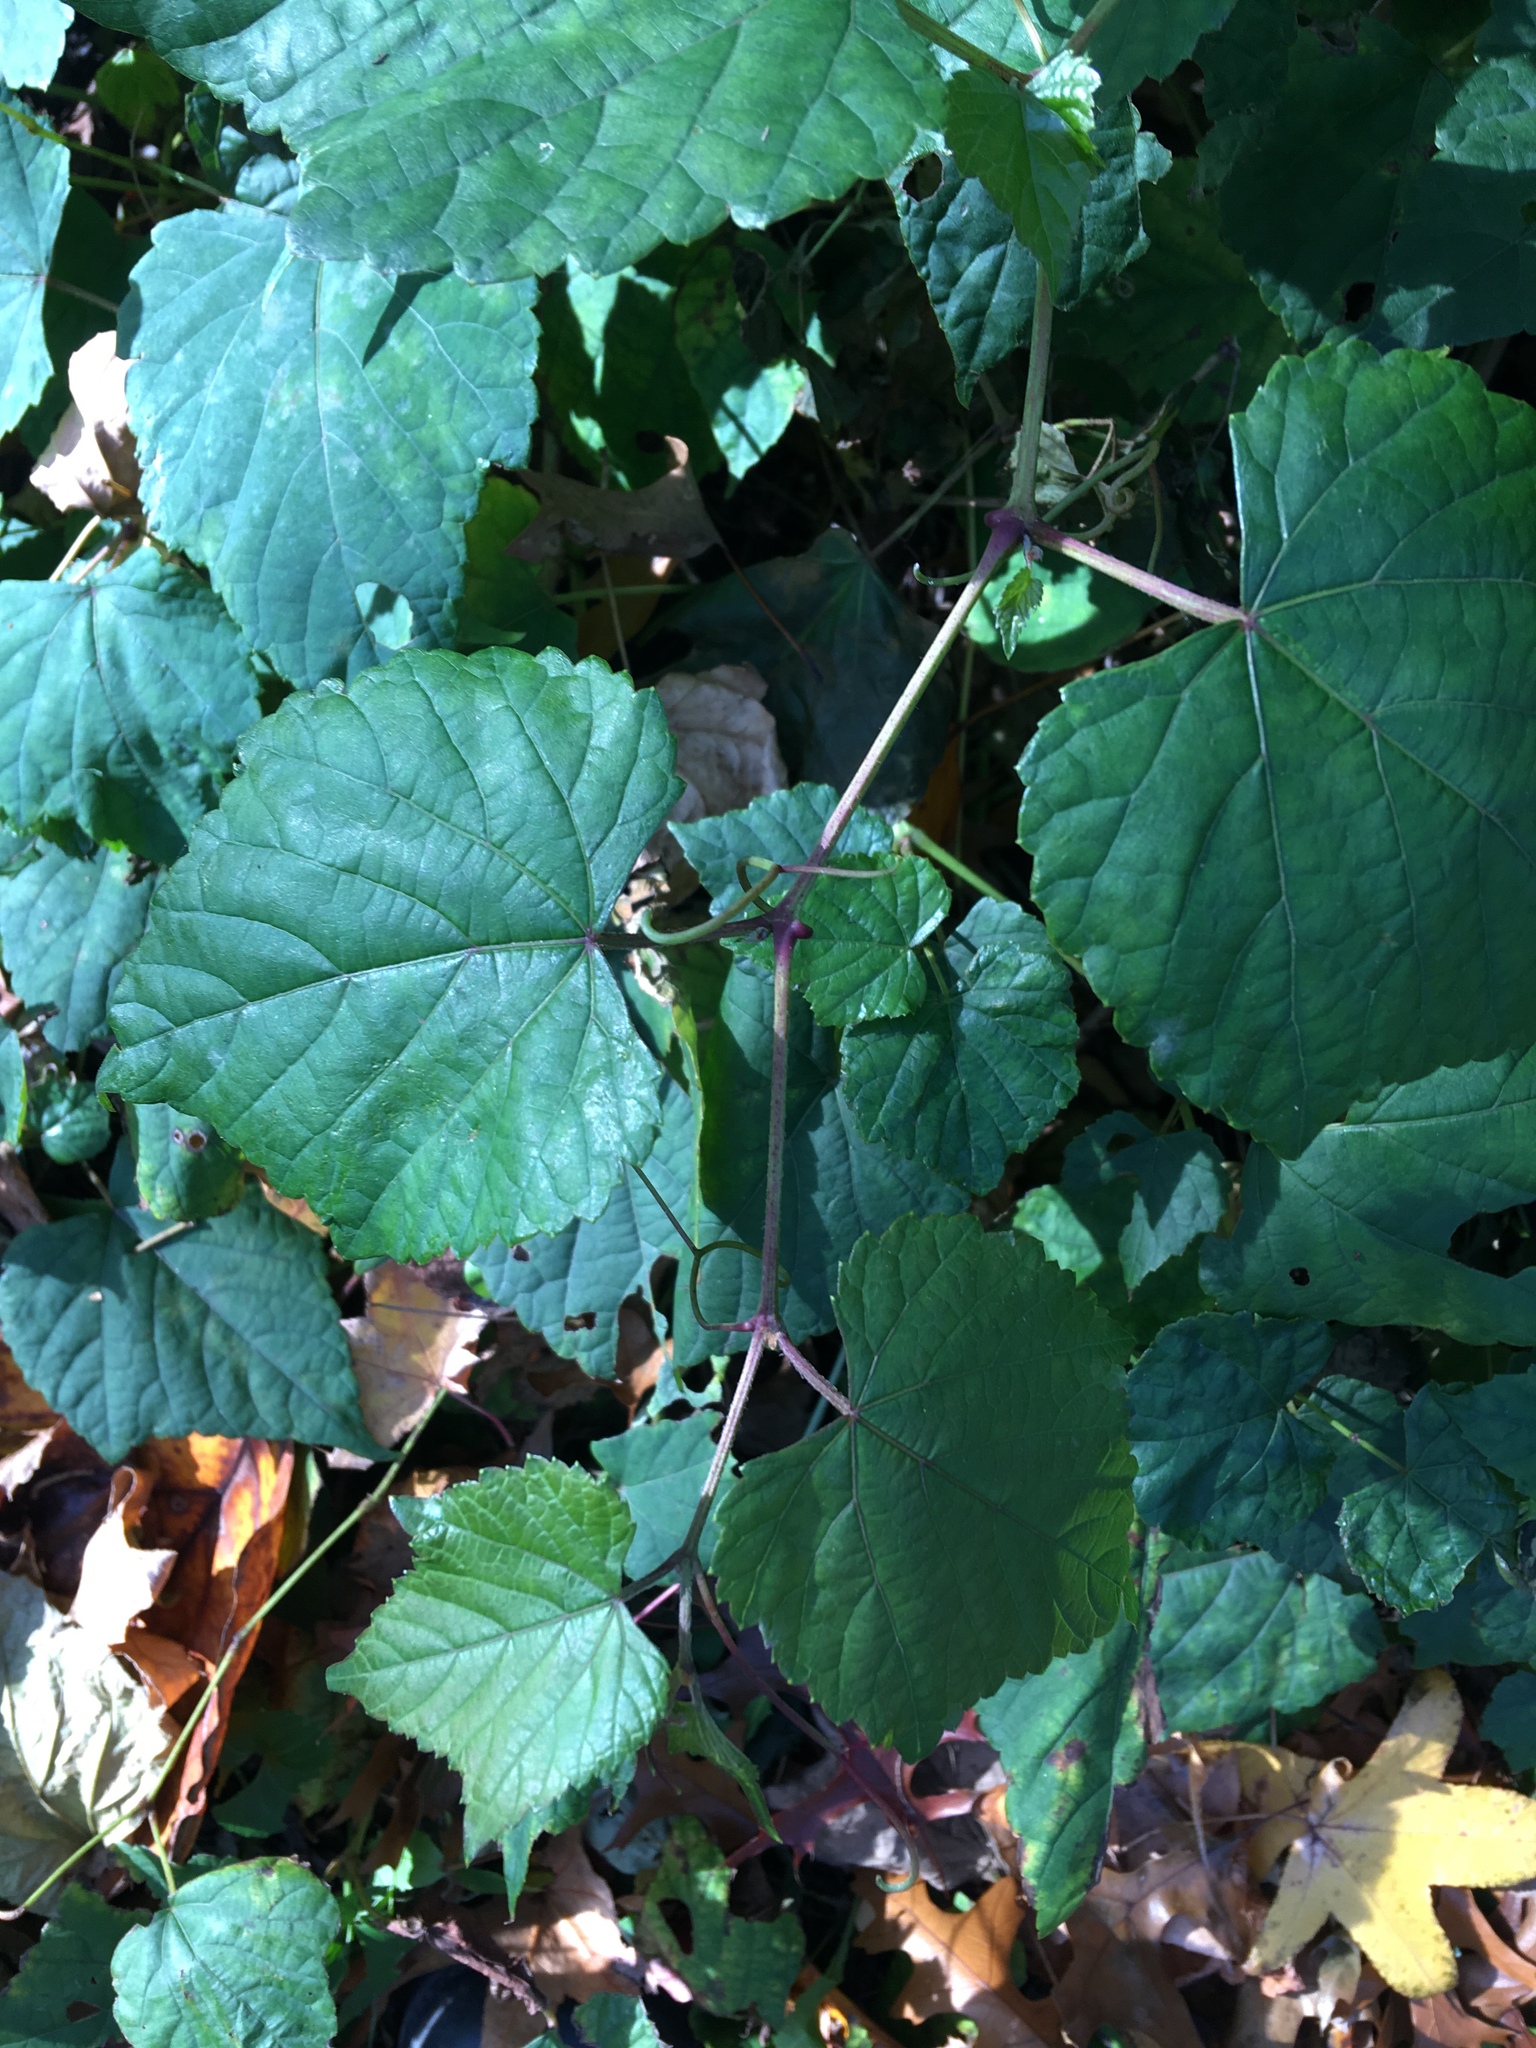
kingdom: Plantae
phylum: Tracheophyta
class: Magnoliopsida
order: Vitales
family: Vitaceae
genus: Ampelopsis
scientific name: Ampelopsis glandulosa
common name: Amur peppervine
